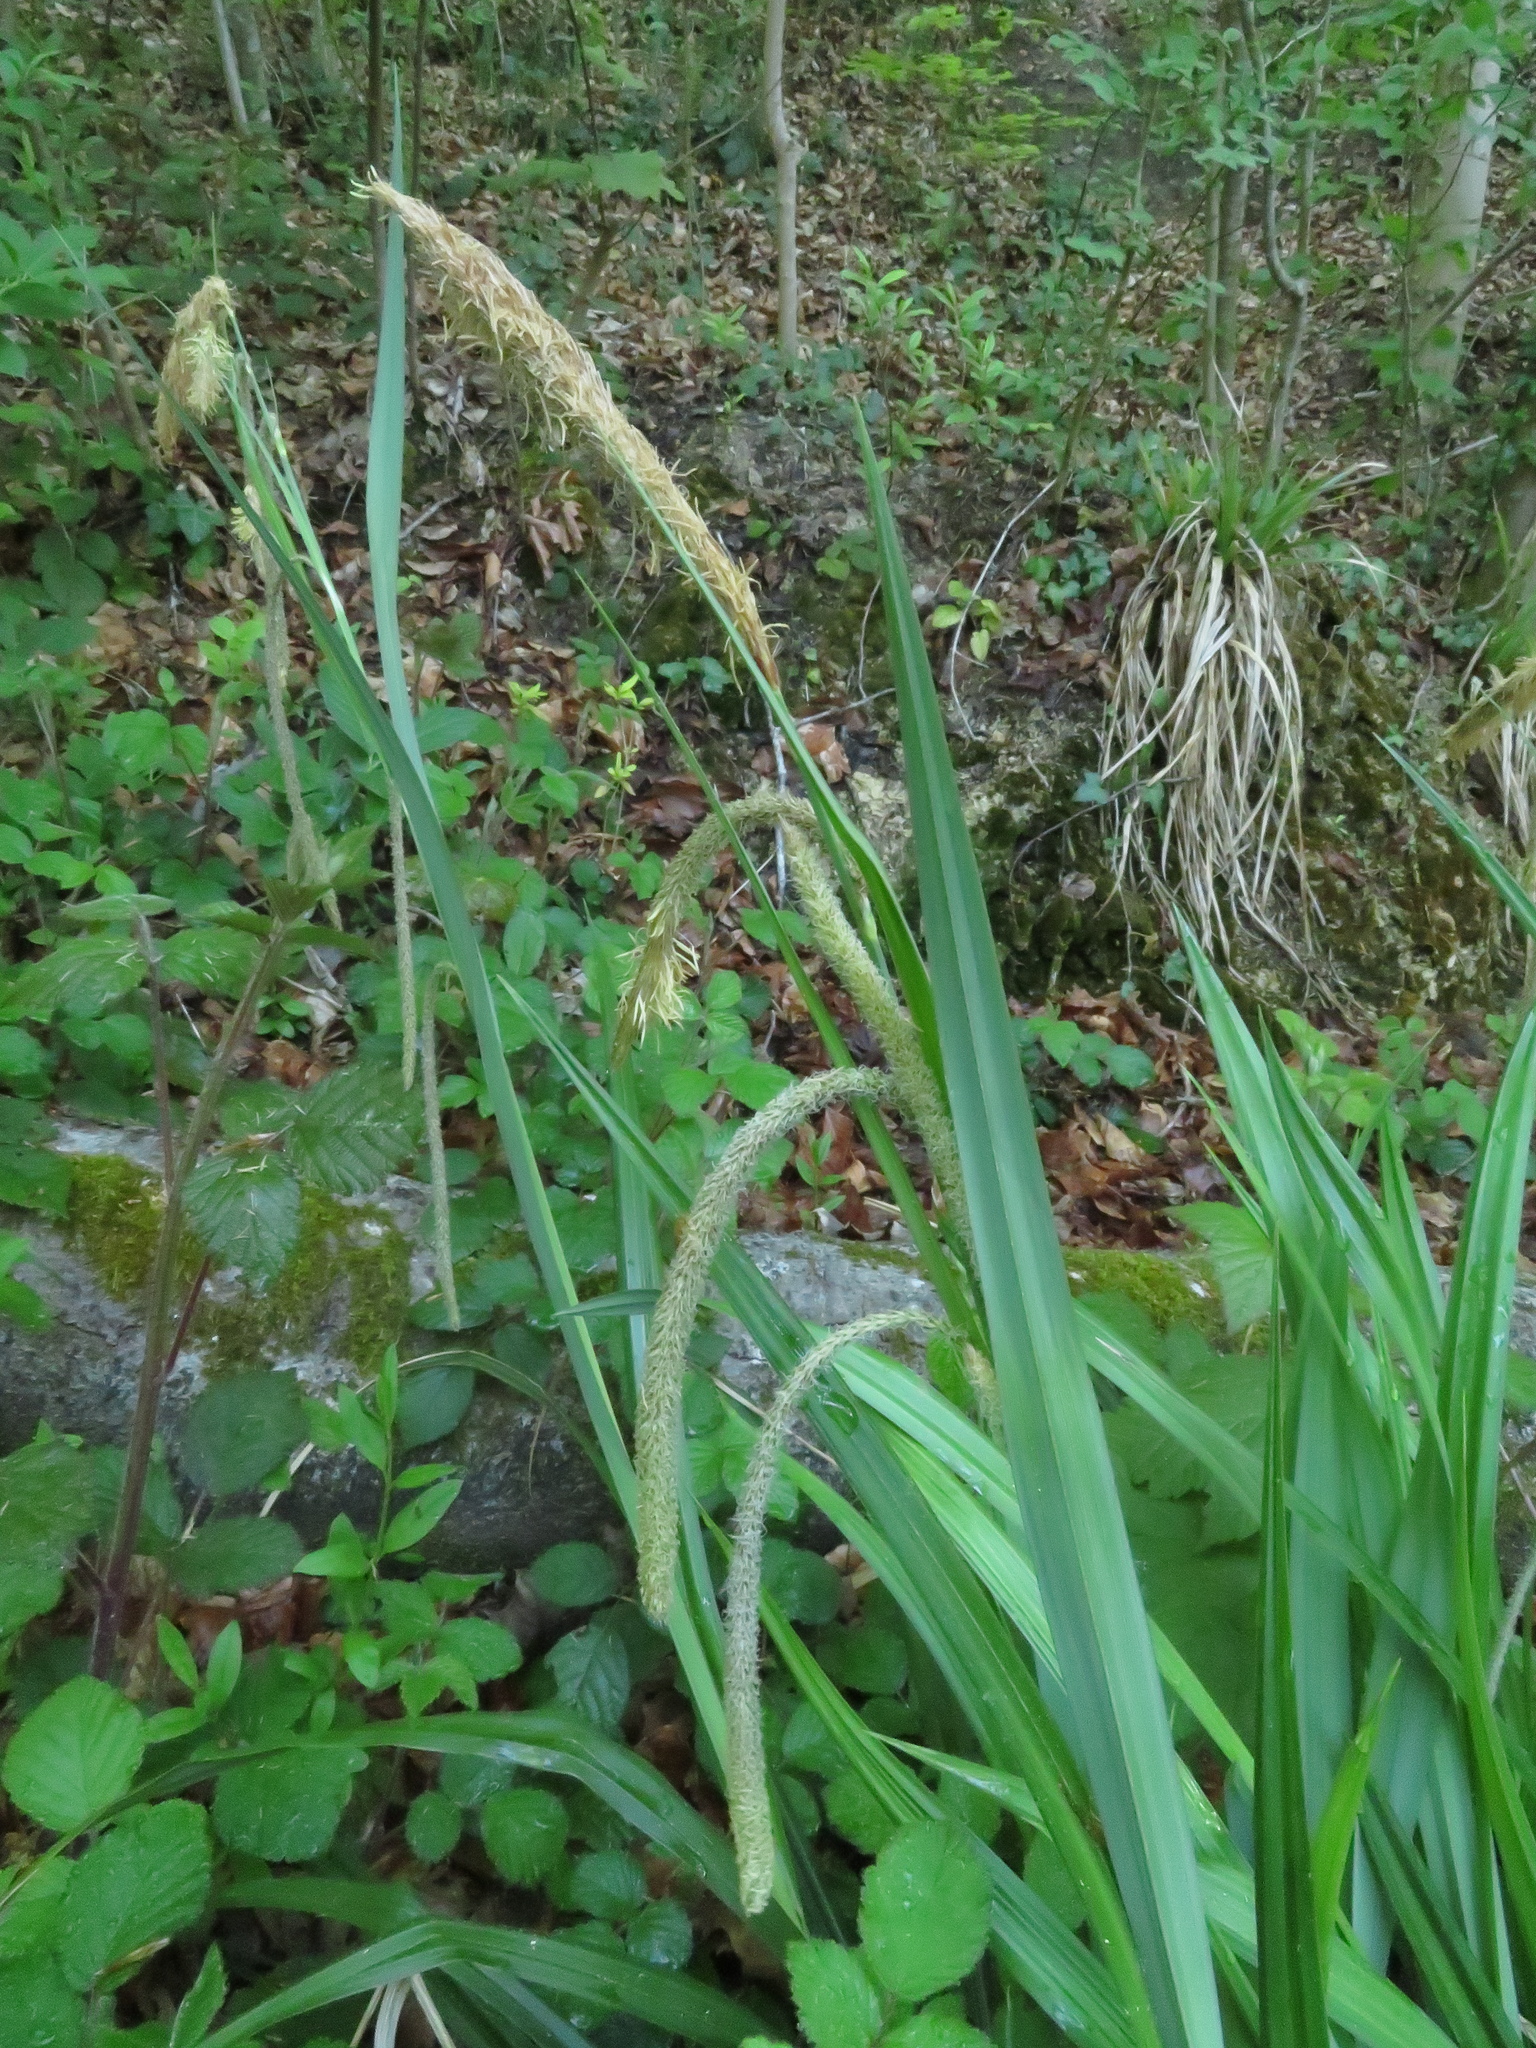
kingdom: Plantae
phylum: Tracheophyta
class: Liliopsida
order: Poales
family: Cyperaceae
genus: Carex
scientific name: Carex pendula
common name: Pendulous sedge
